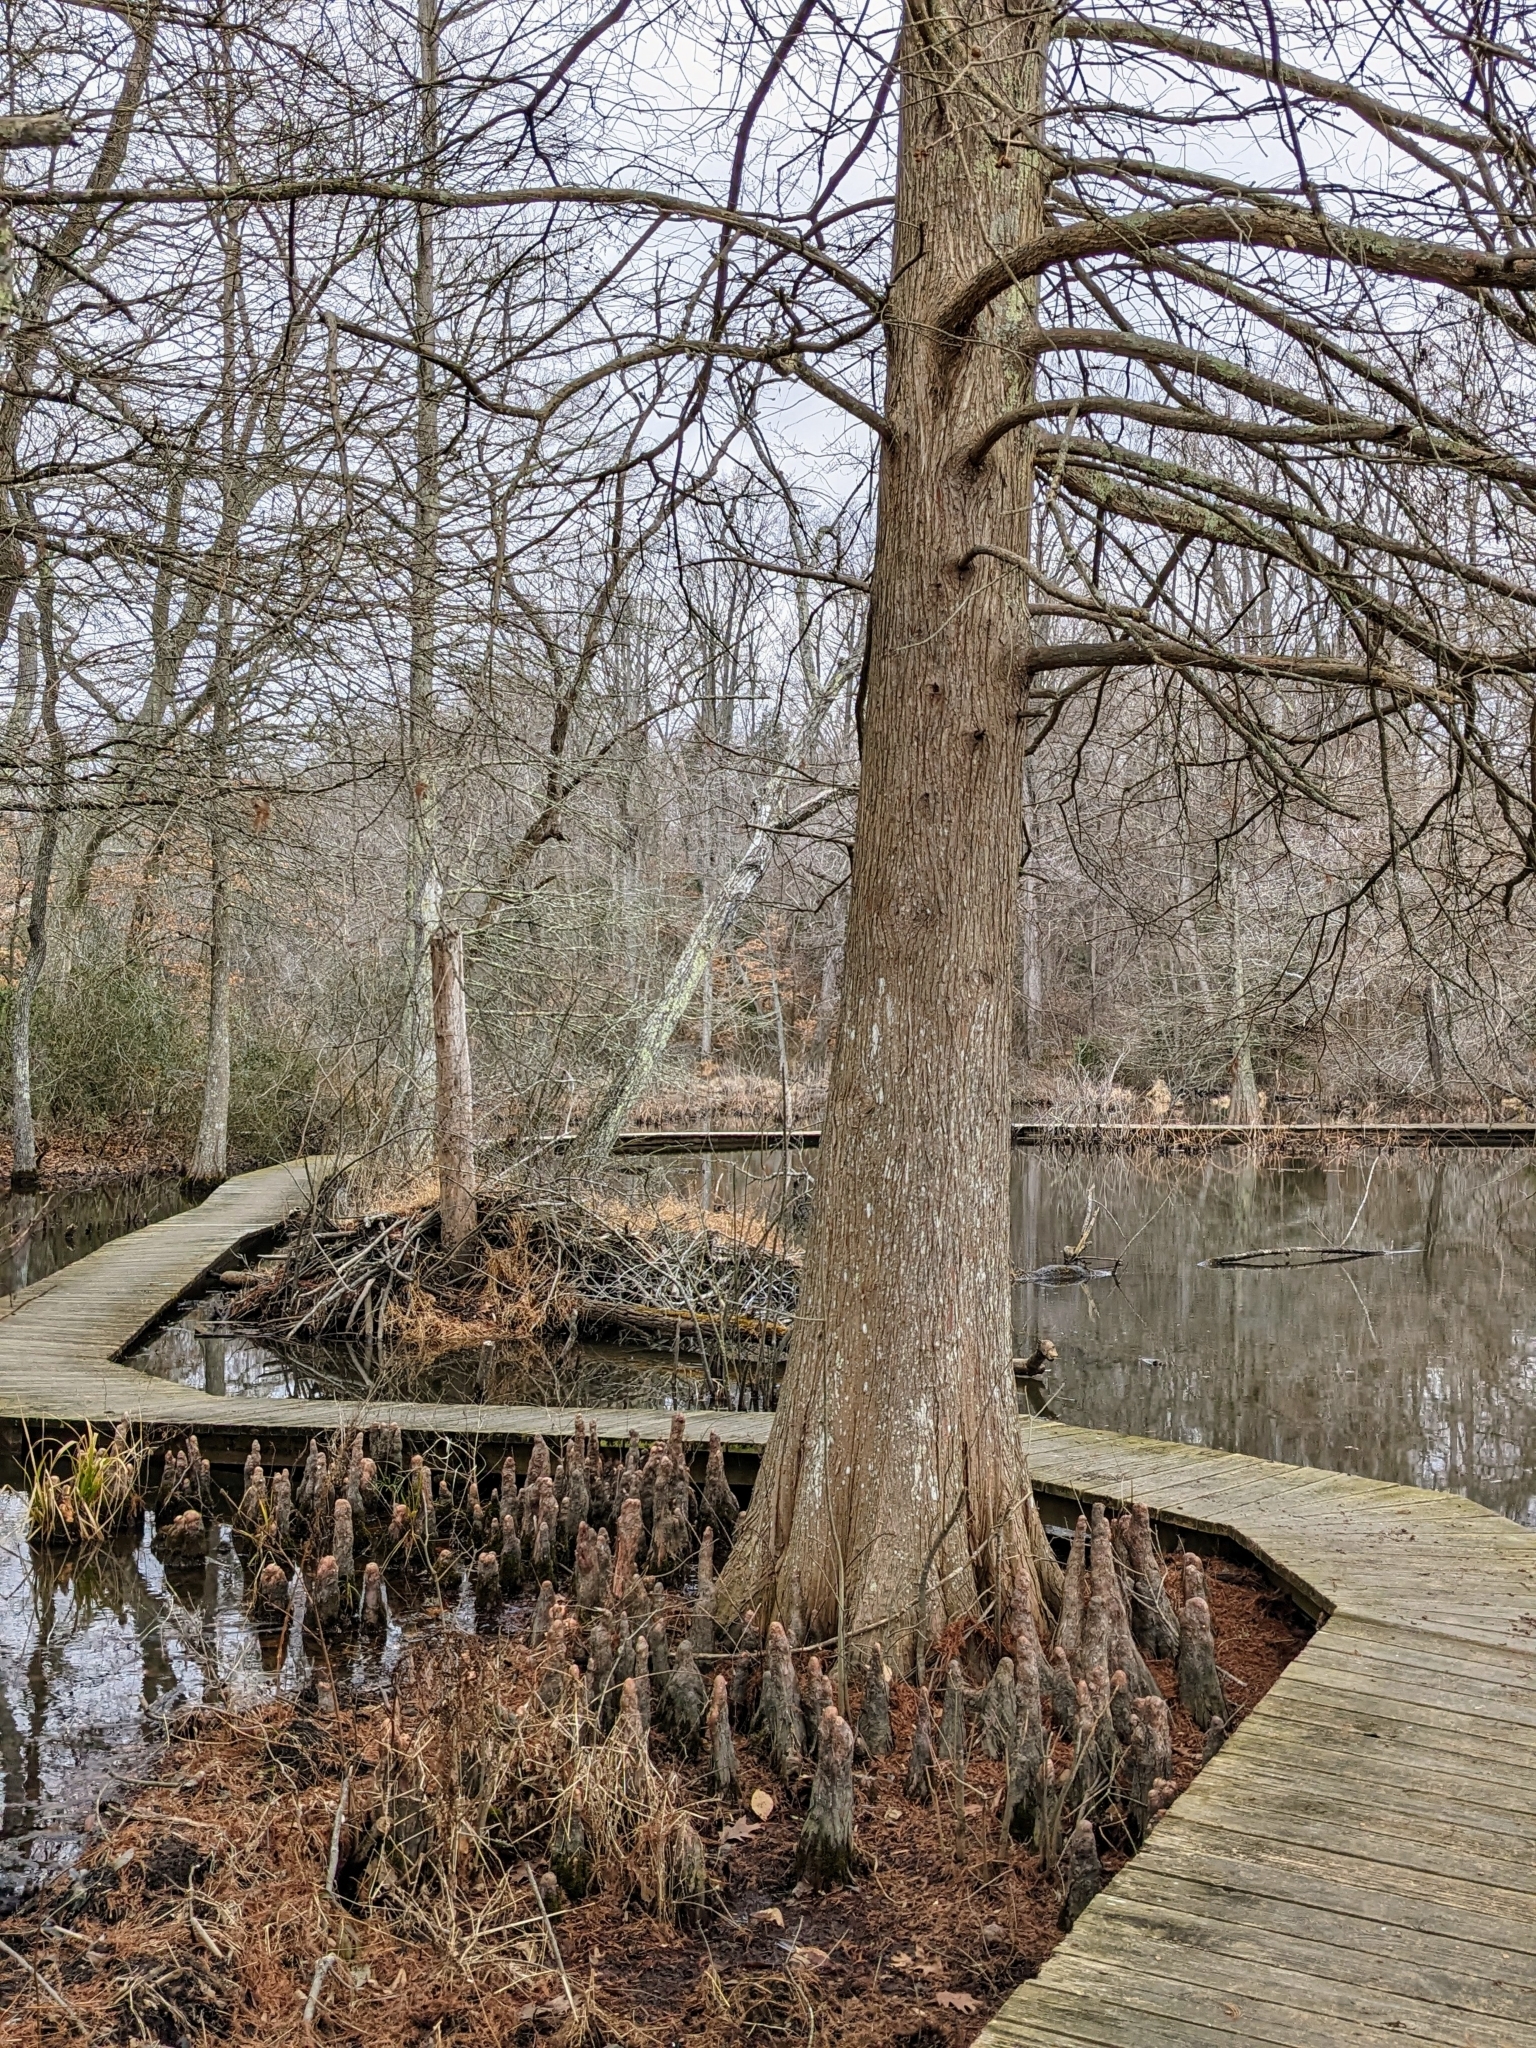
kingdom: Plantae
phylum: Tracheophyta
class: Pinopsida
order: Pinales
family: Cupressaceae
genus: Taxodium
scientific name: Taxodium distichum
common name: Bald cypress
